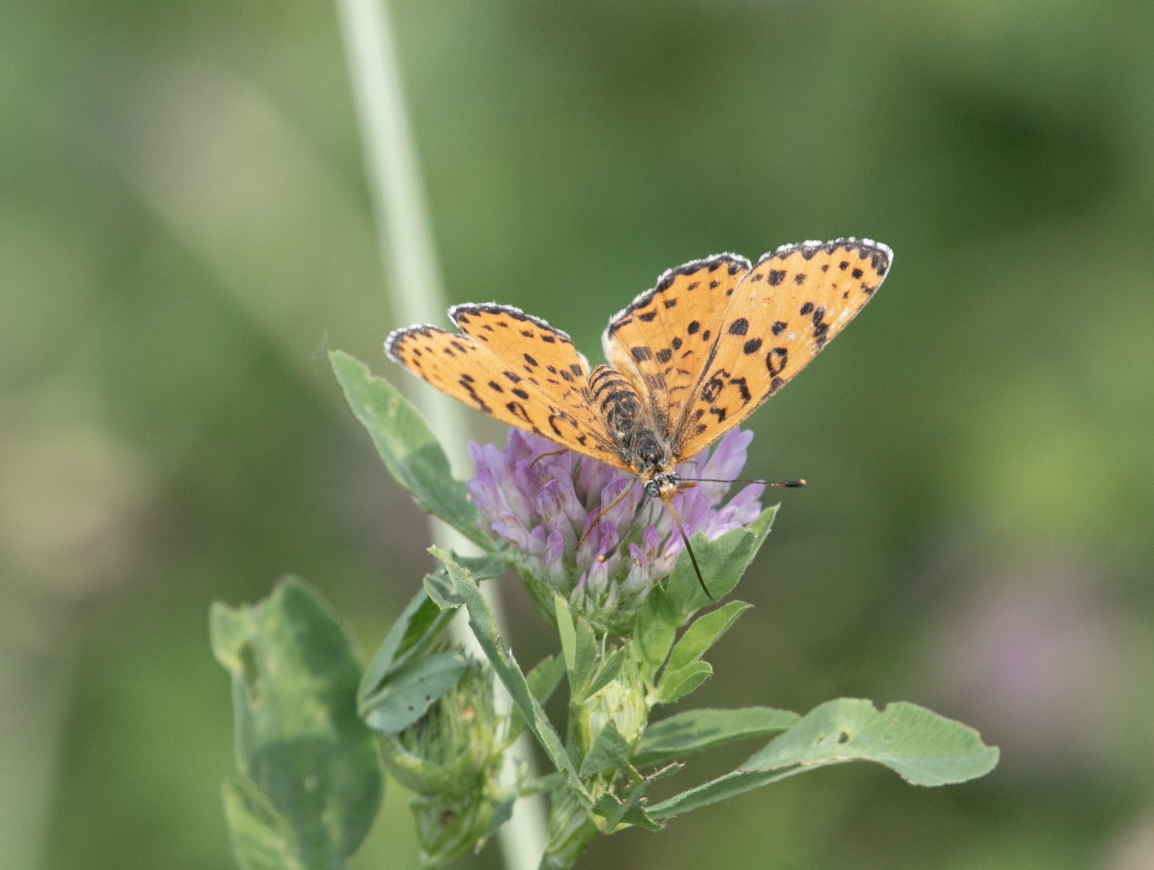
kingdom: Animalia
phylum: Arthropoda
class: Insecta
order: Lepidoptera
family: Nymphalidae
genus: Melitaea
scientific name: Melitaea didyma
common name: Spotted fritillary
